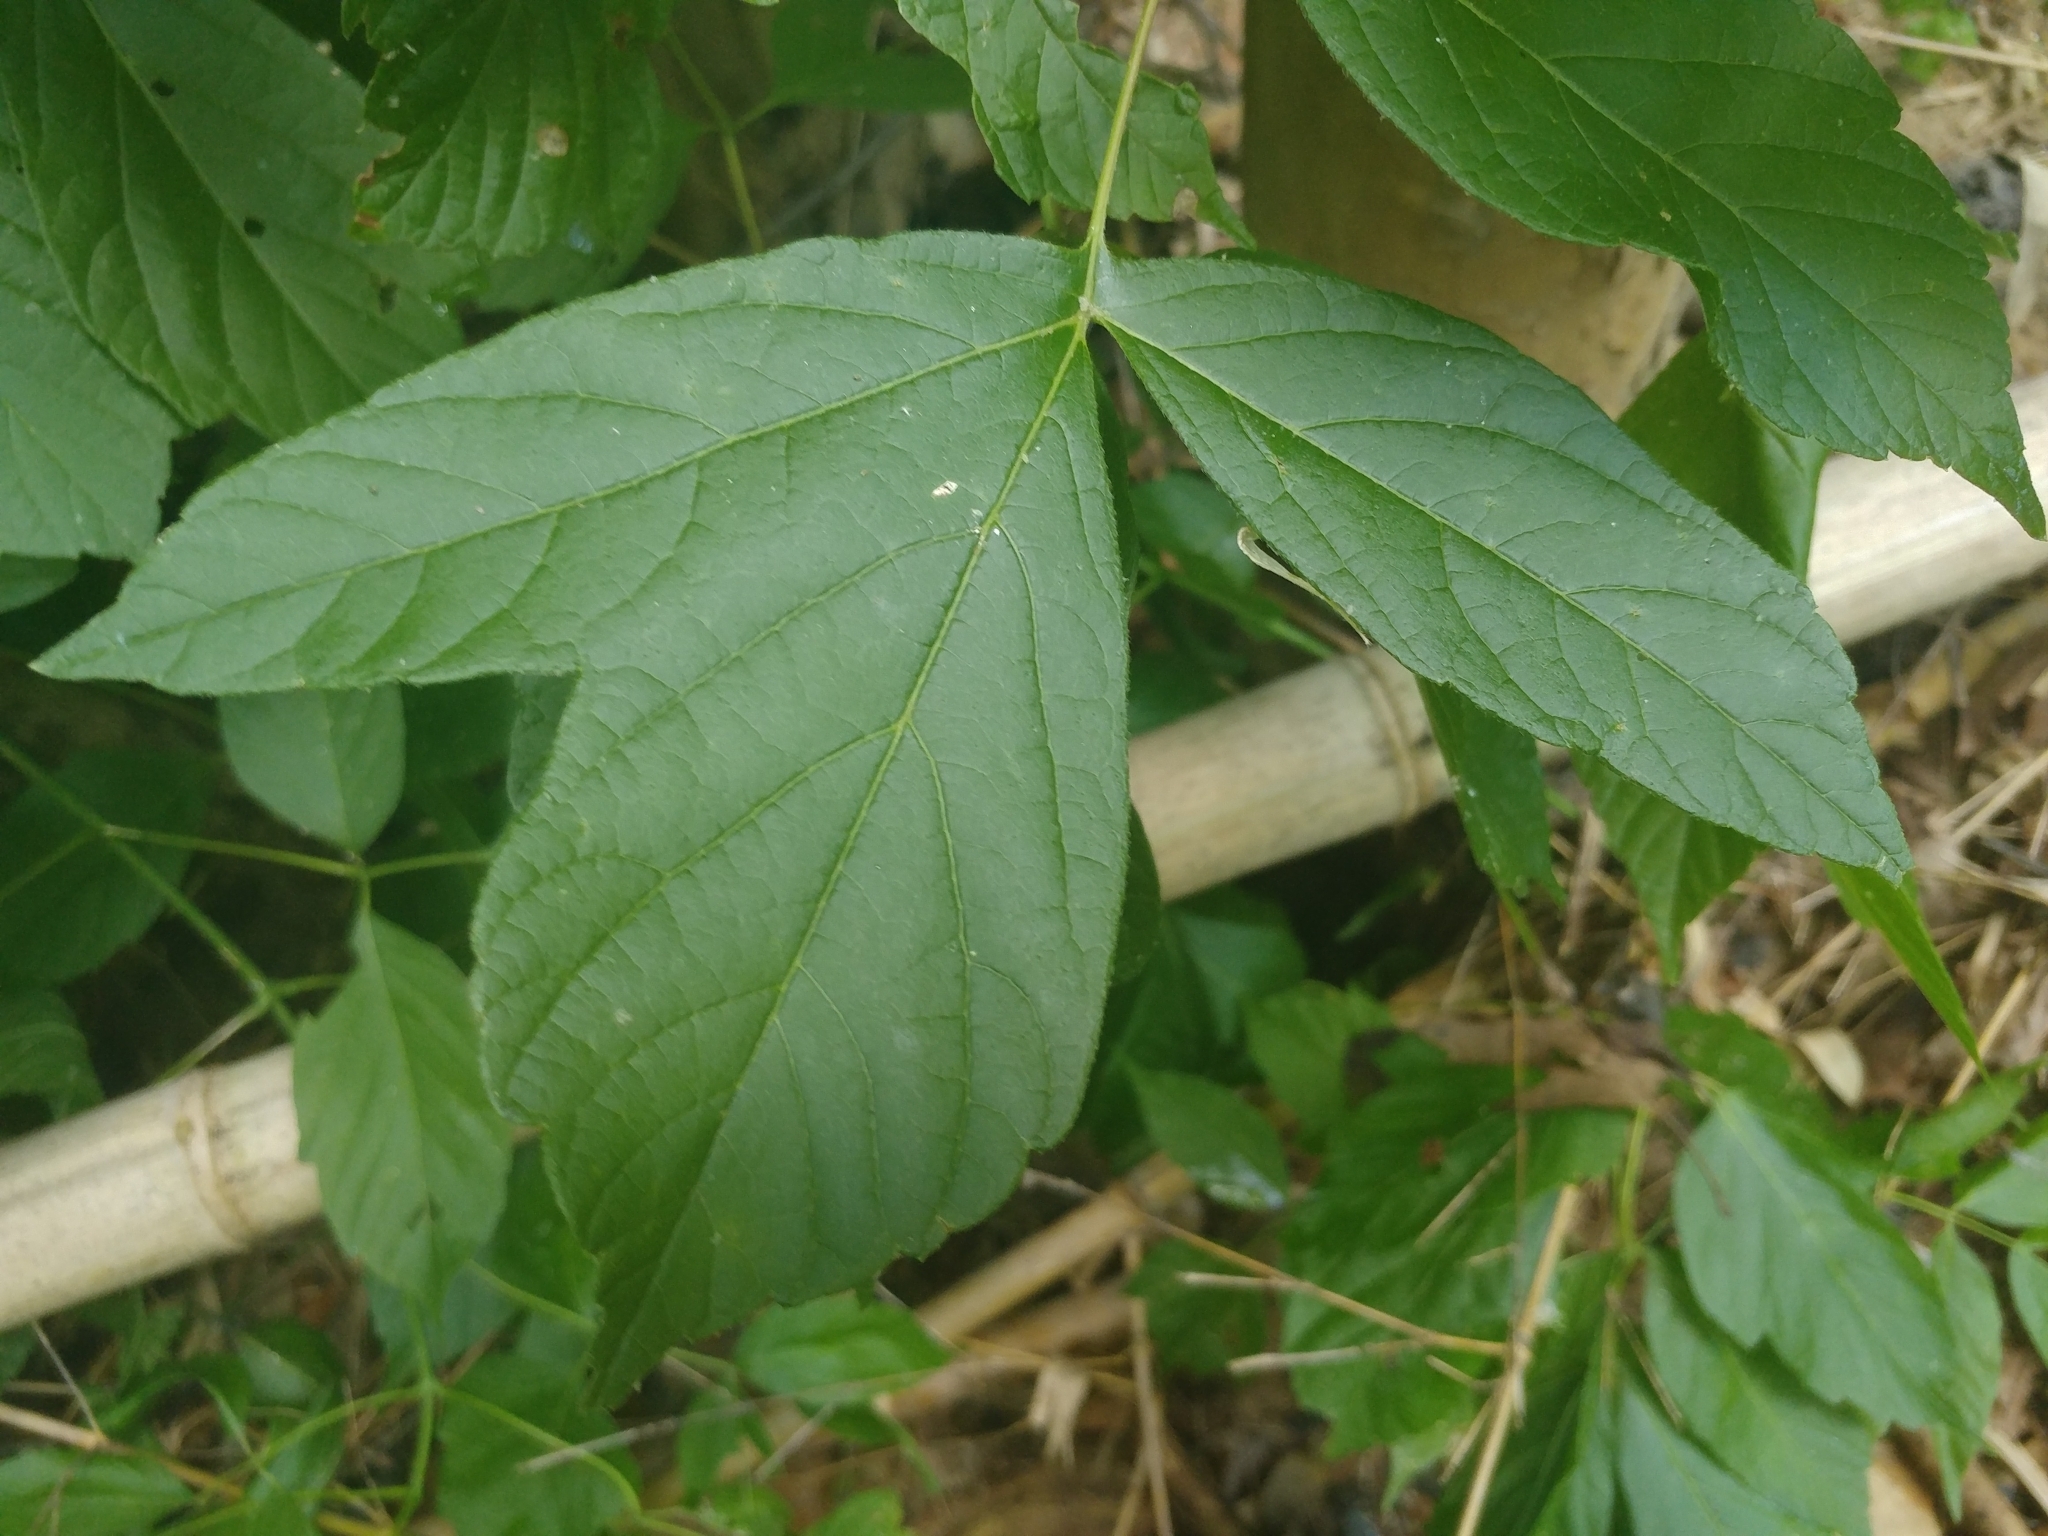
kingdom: Plantae
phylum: Tracheophyta
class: Magnoliopsida
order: Sapindales
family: Sapindaceae
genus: Acer
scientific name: Acer negundo
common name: Ashleaf maple
